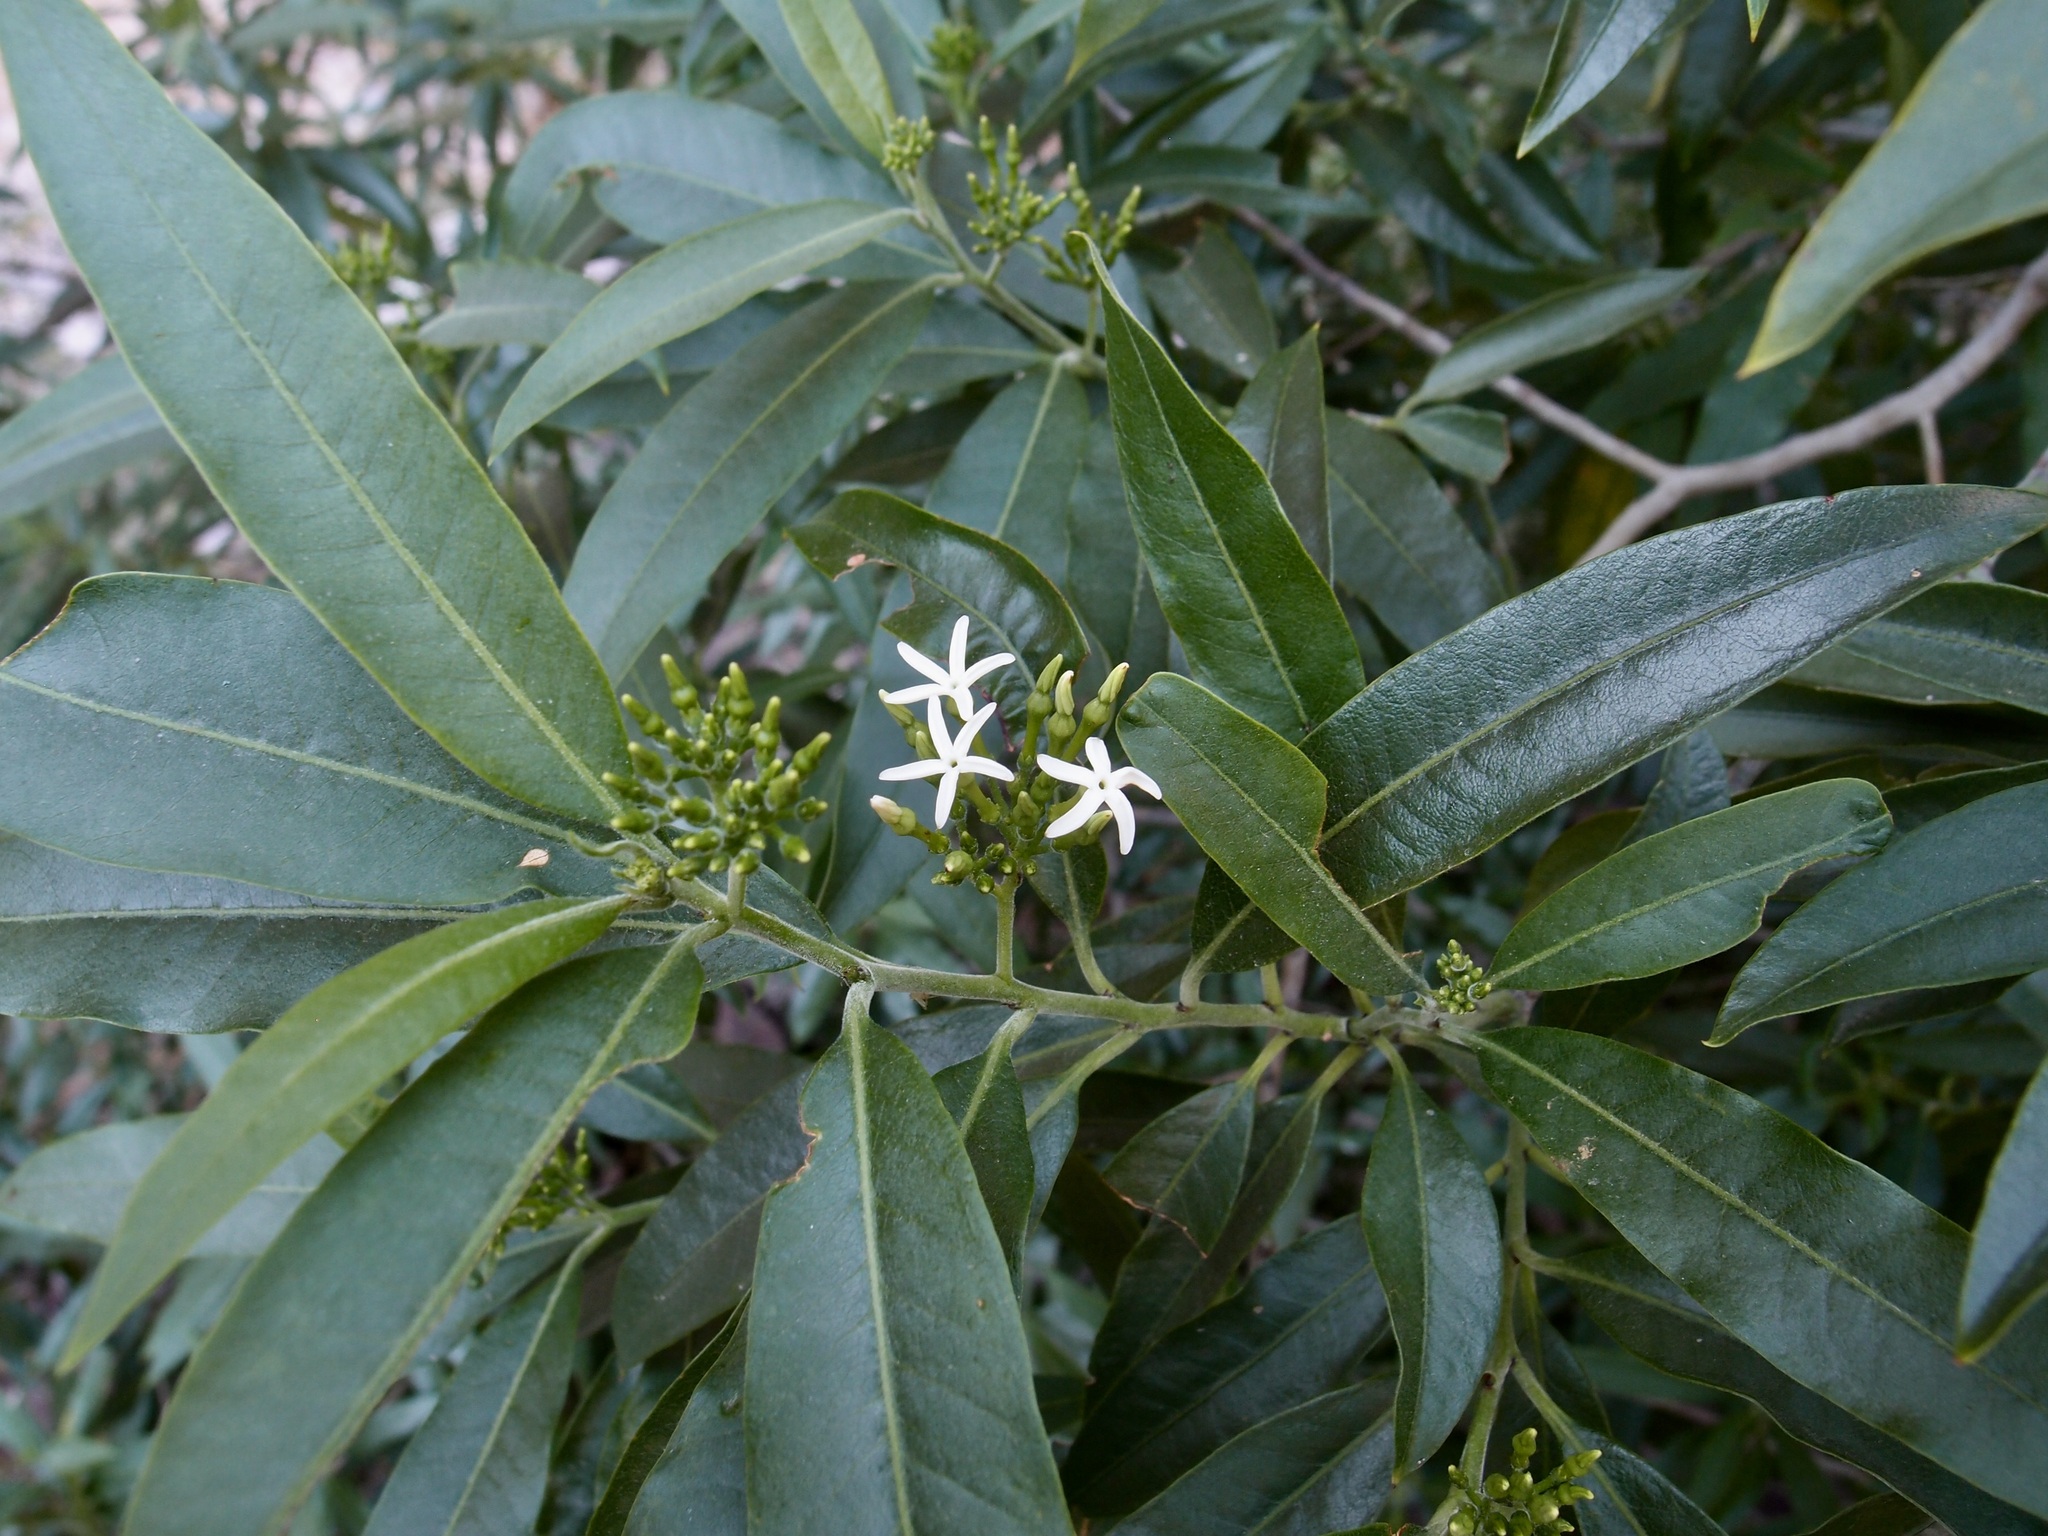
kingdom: Plantae
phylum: Tracheophyta
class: Magnoliopsida
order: Gentianales
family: Apocynaceae
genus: Vallesia
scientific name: Vallesia laciniata
